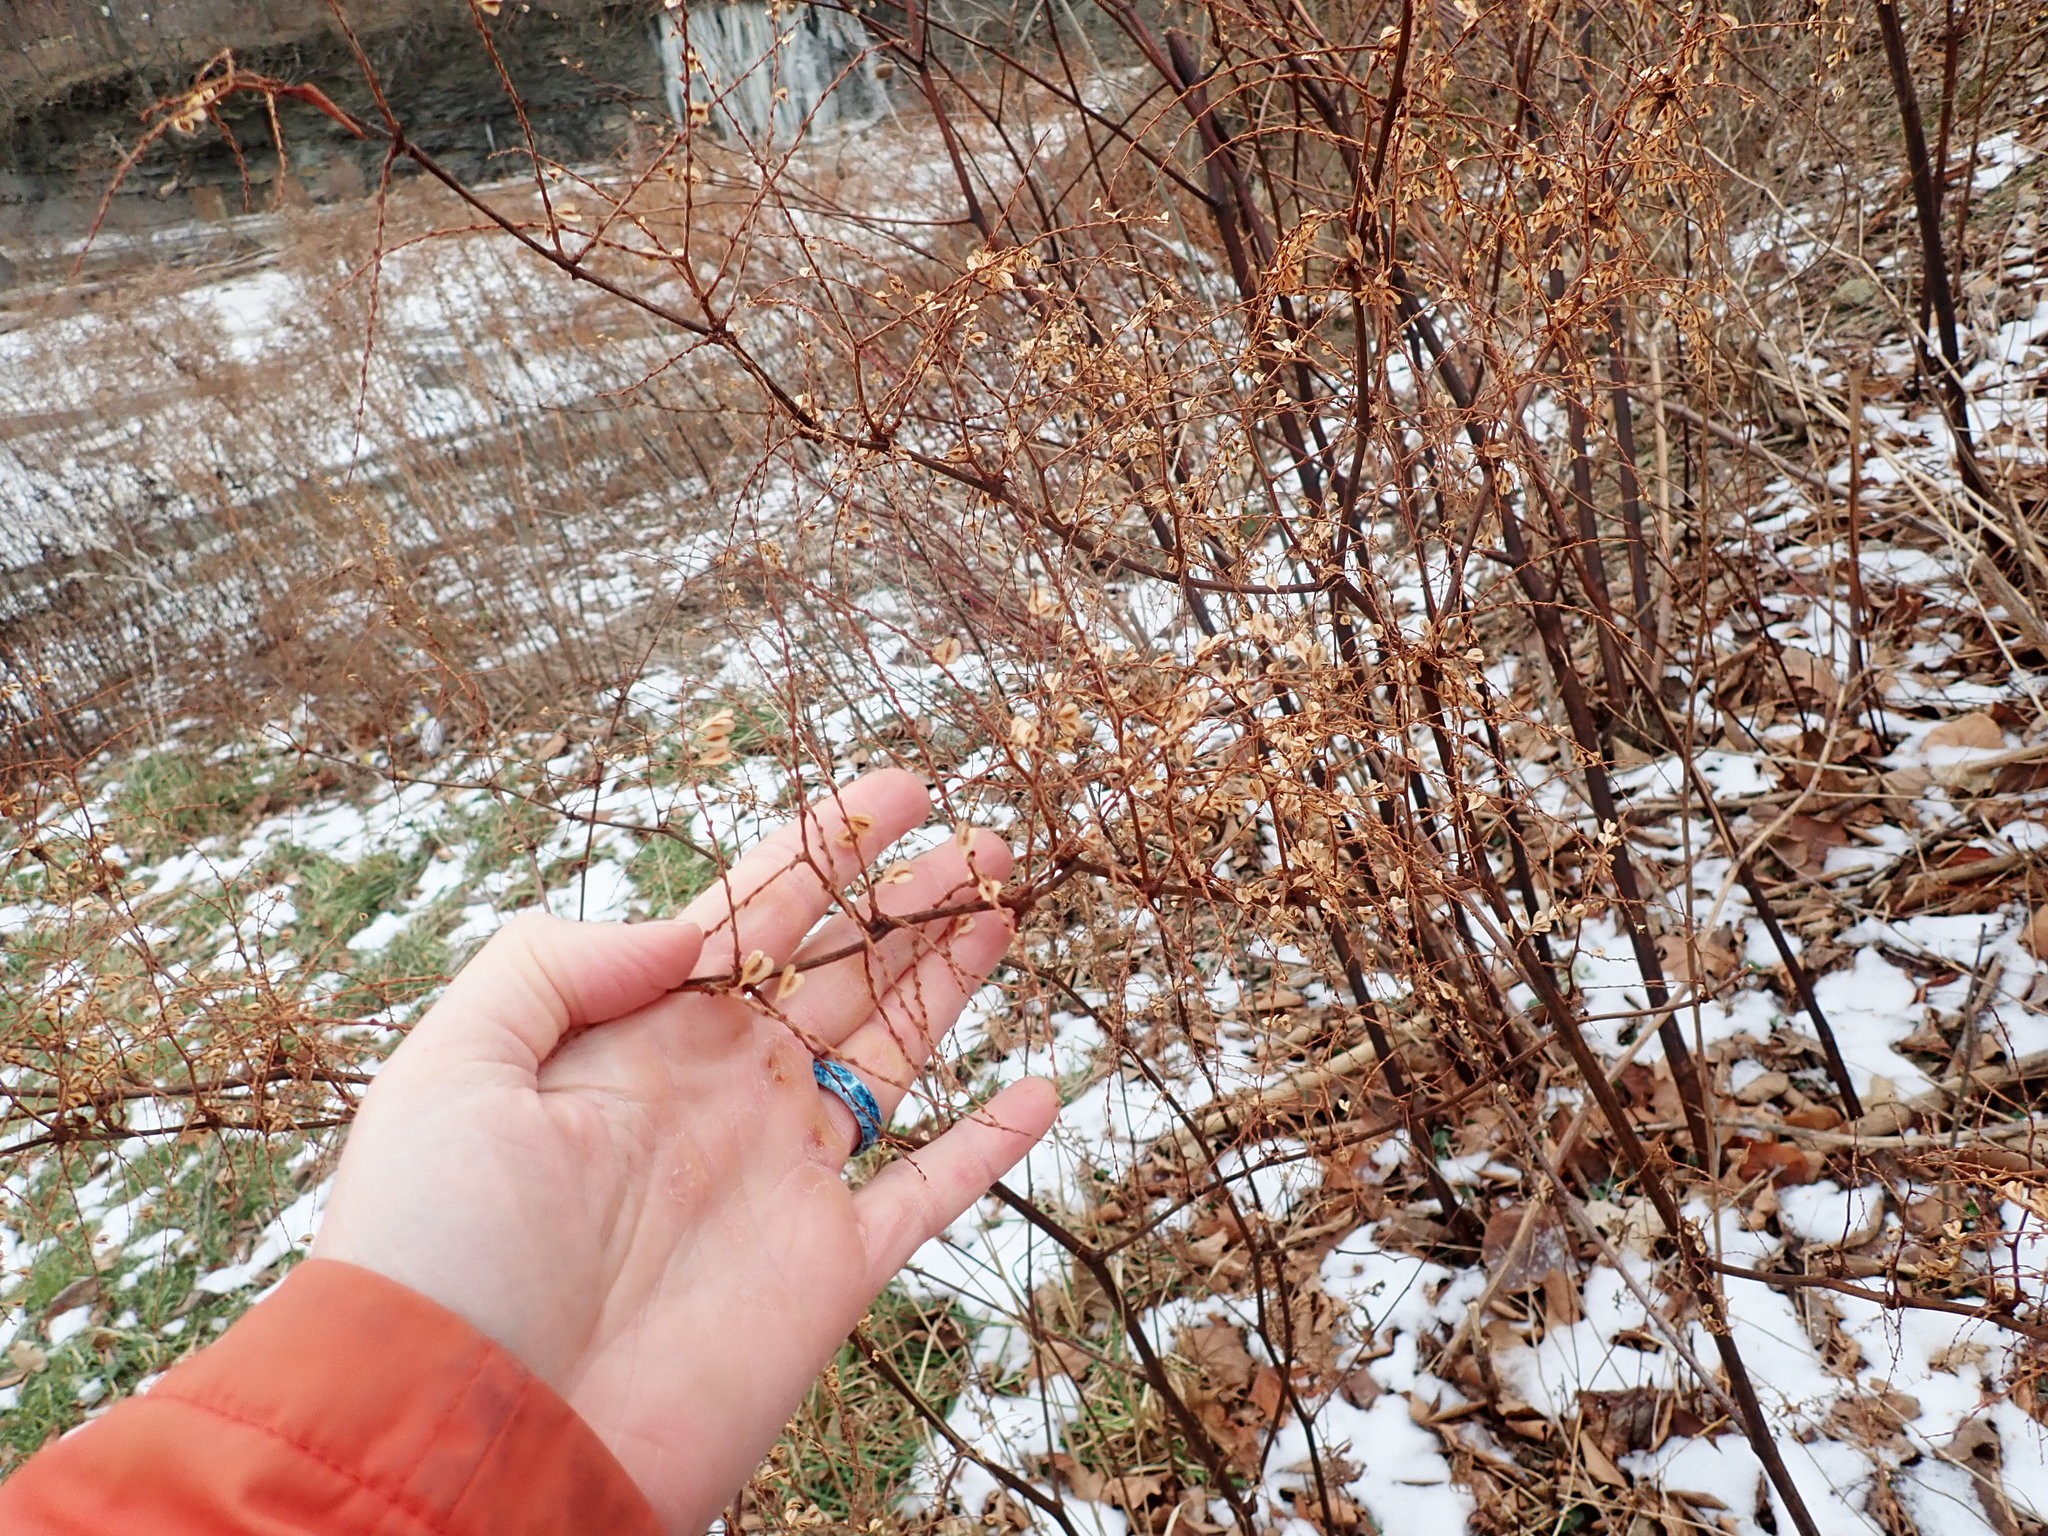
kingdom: Plantae
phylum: Tracheophyta
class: Magnoliopsida
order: Caryophyllales
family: Polygonaceae
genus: Reynoutria
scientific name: Reynoutria japonica
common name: Japanese knotweed
